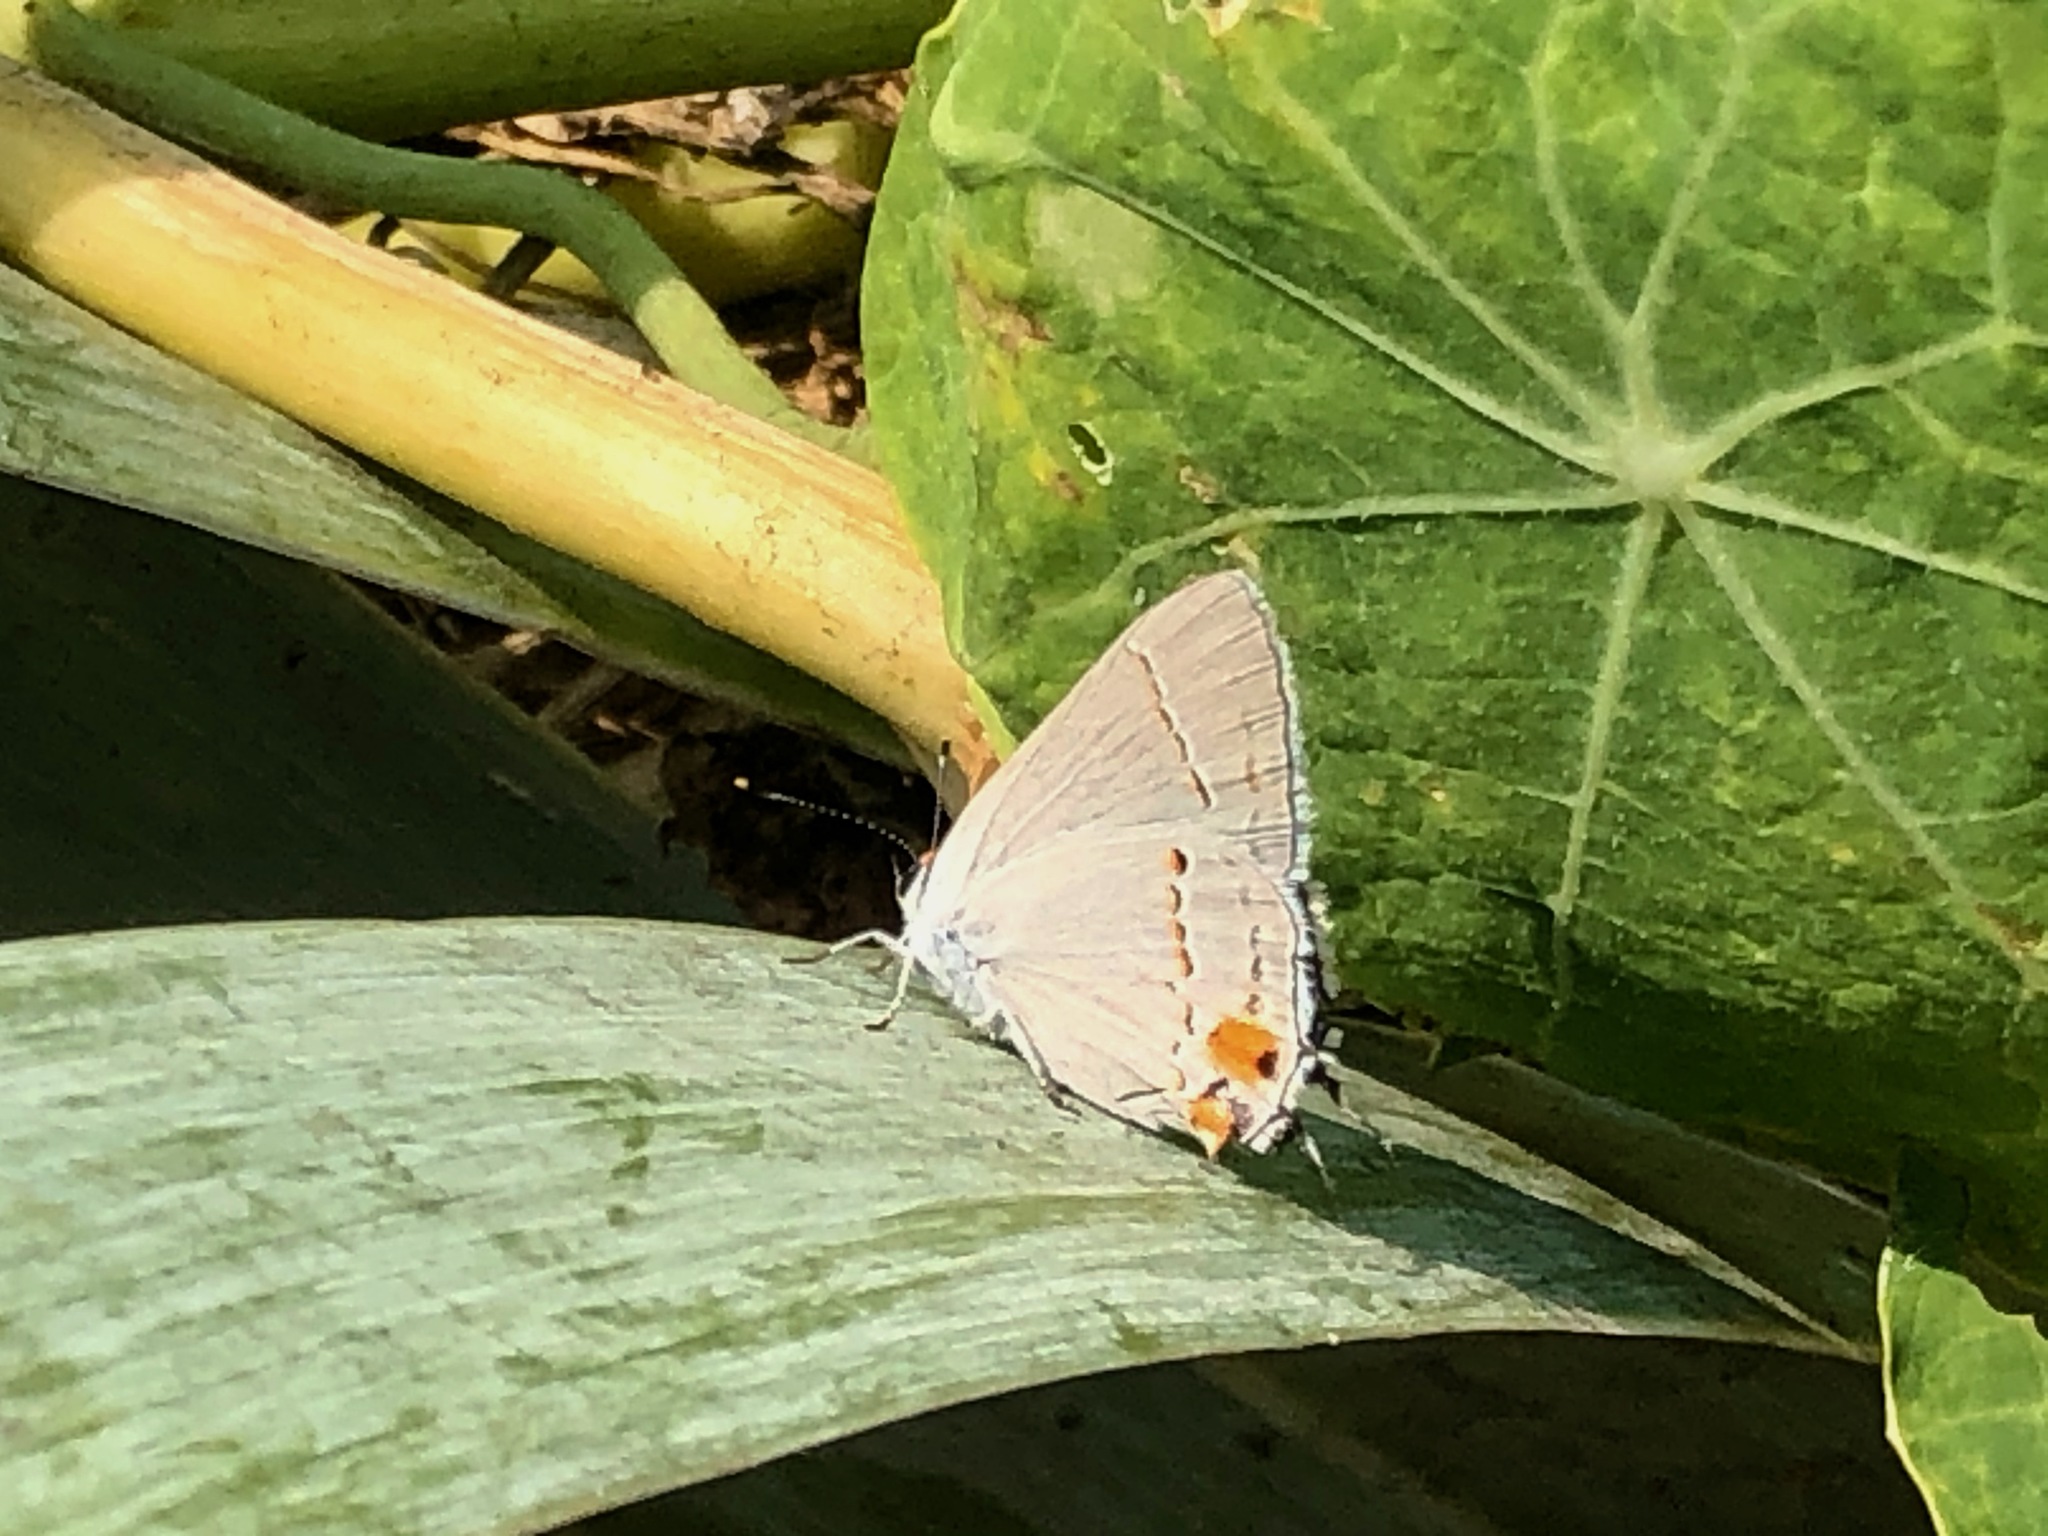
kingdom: Animalia
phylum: Arthropoda
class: Insecta
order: Lepidoptera
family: Lycaenidae
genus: Strymon
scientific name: Strymon melinus
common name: Gray hairstreak
